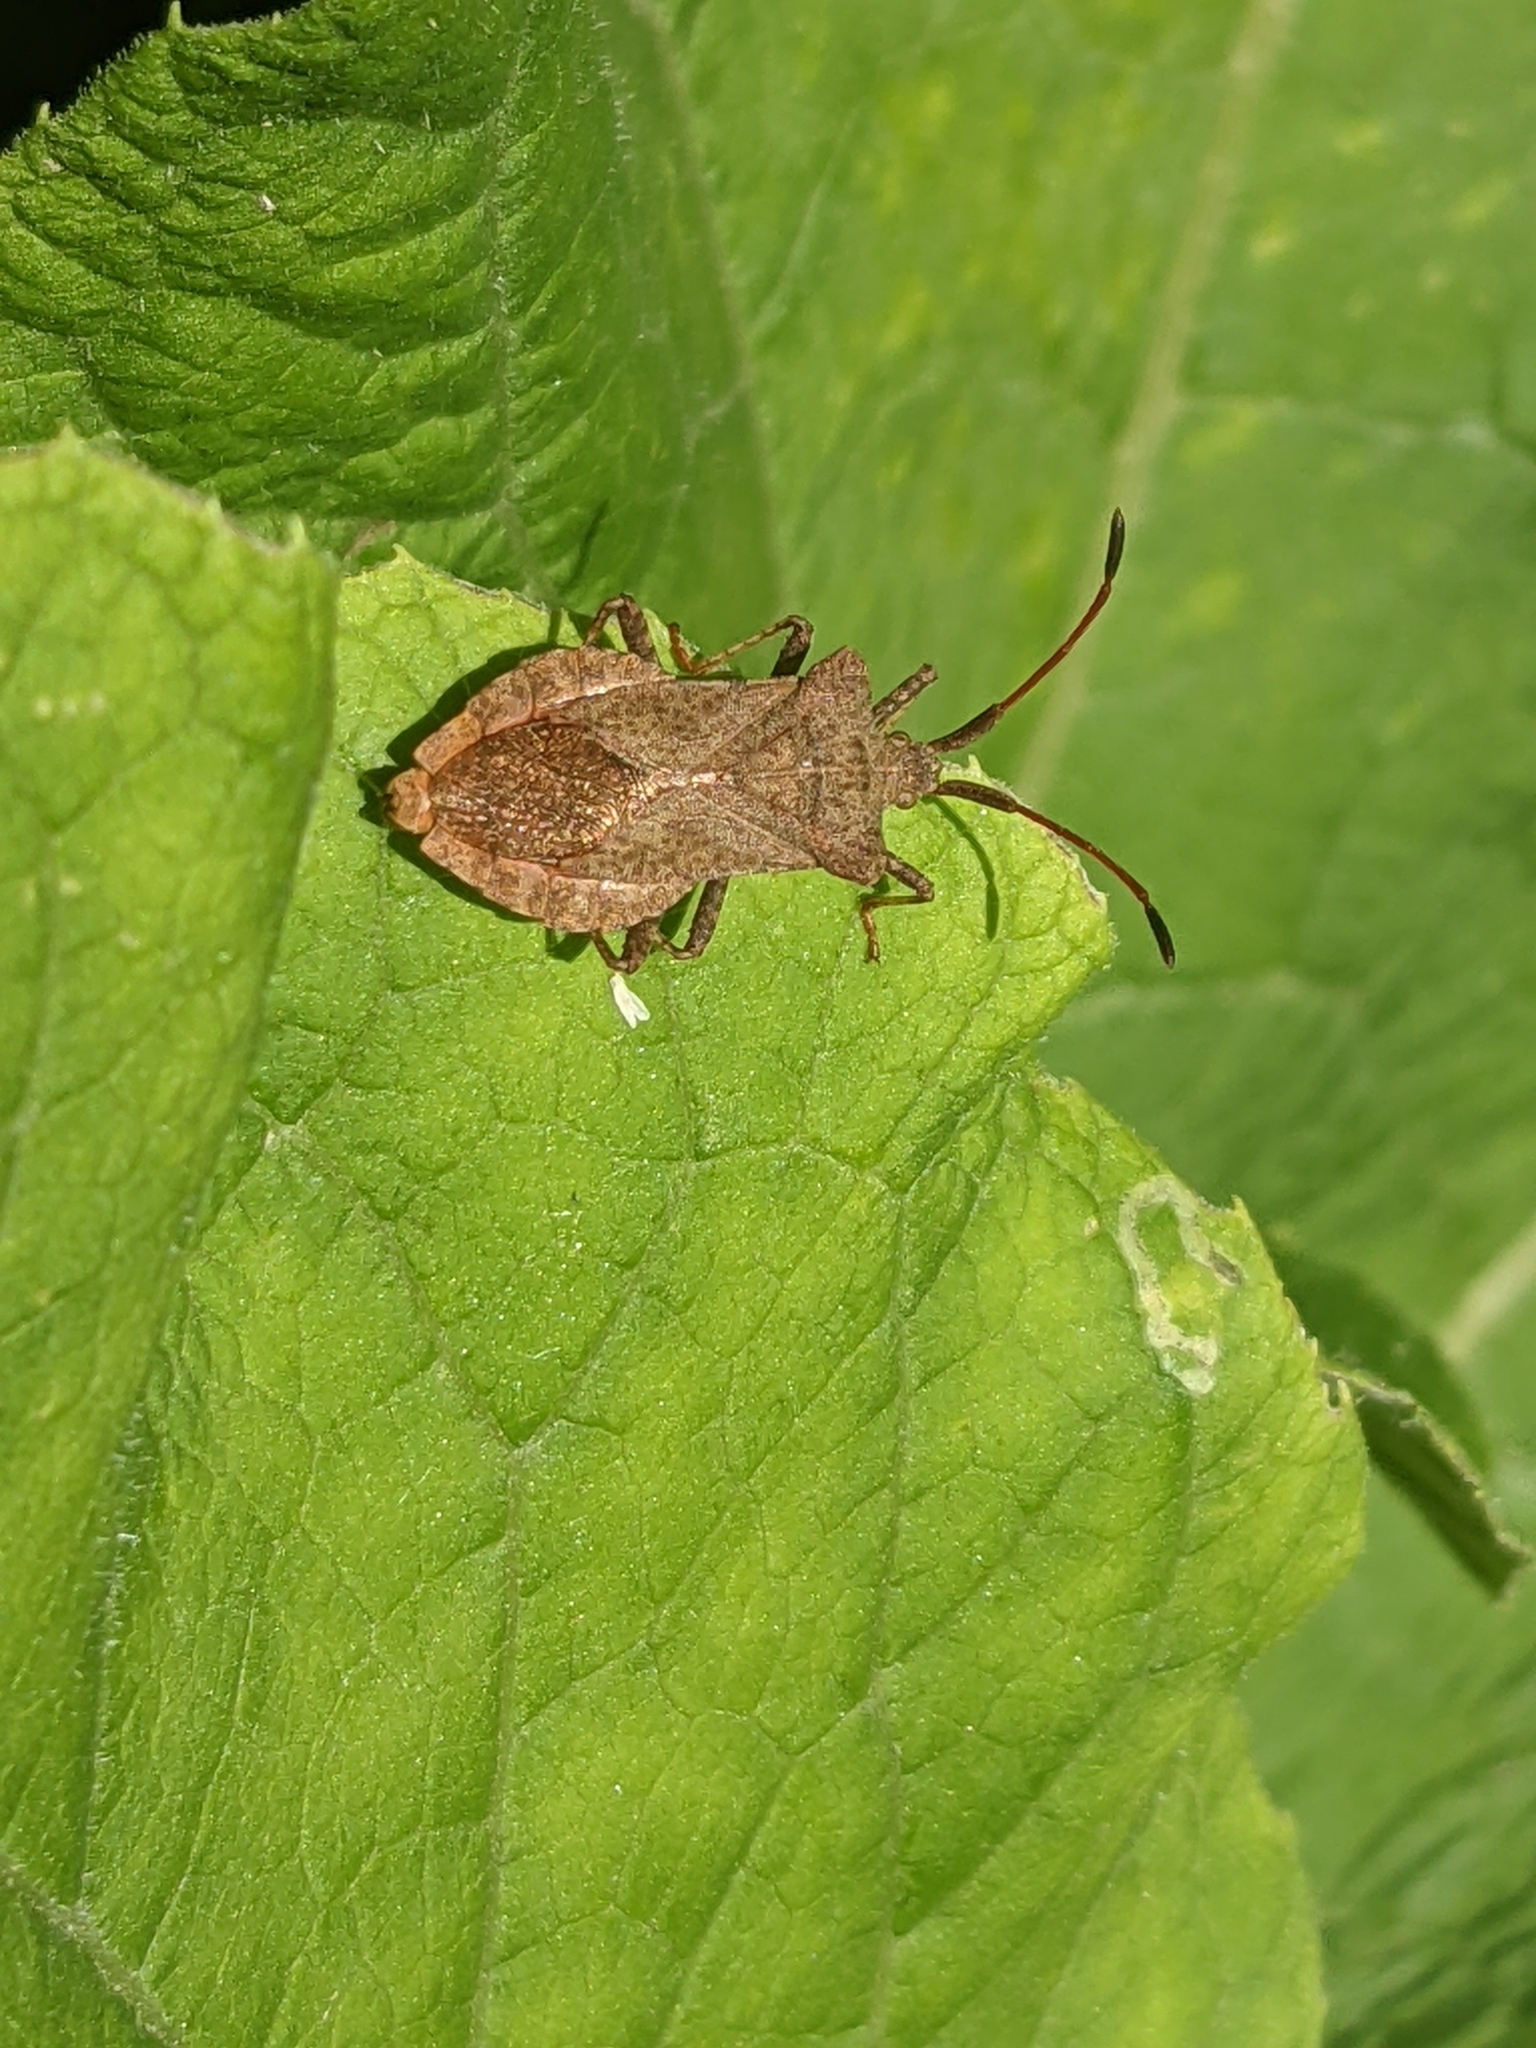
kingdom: Animalia
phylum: Arthropoda
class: Insecta
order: Hemiptera
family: Coreidae
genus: Coreus
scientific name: Coreus marginatus
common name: Dock bug
